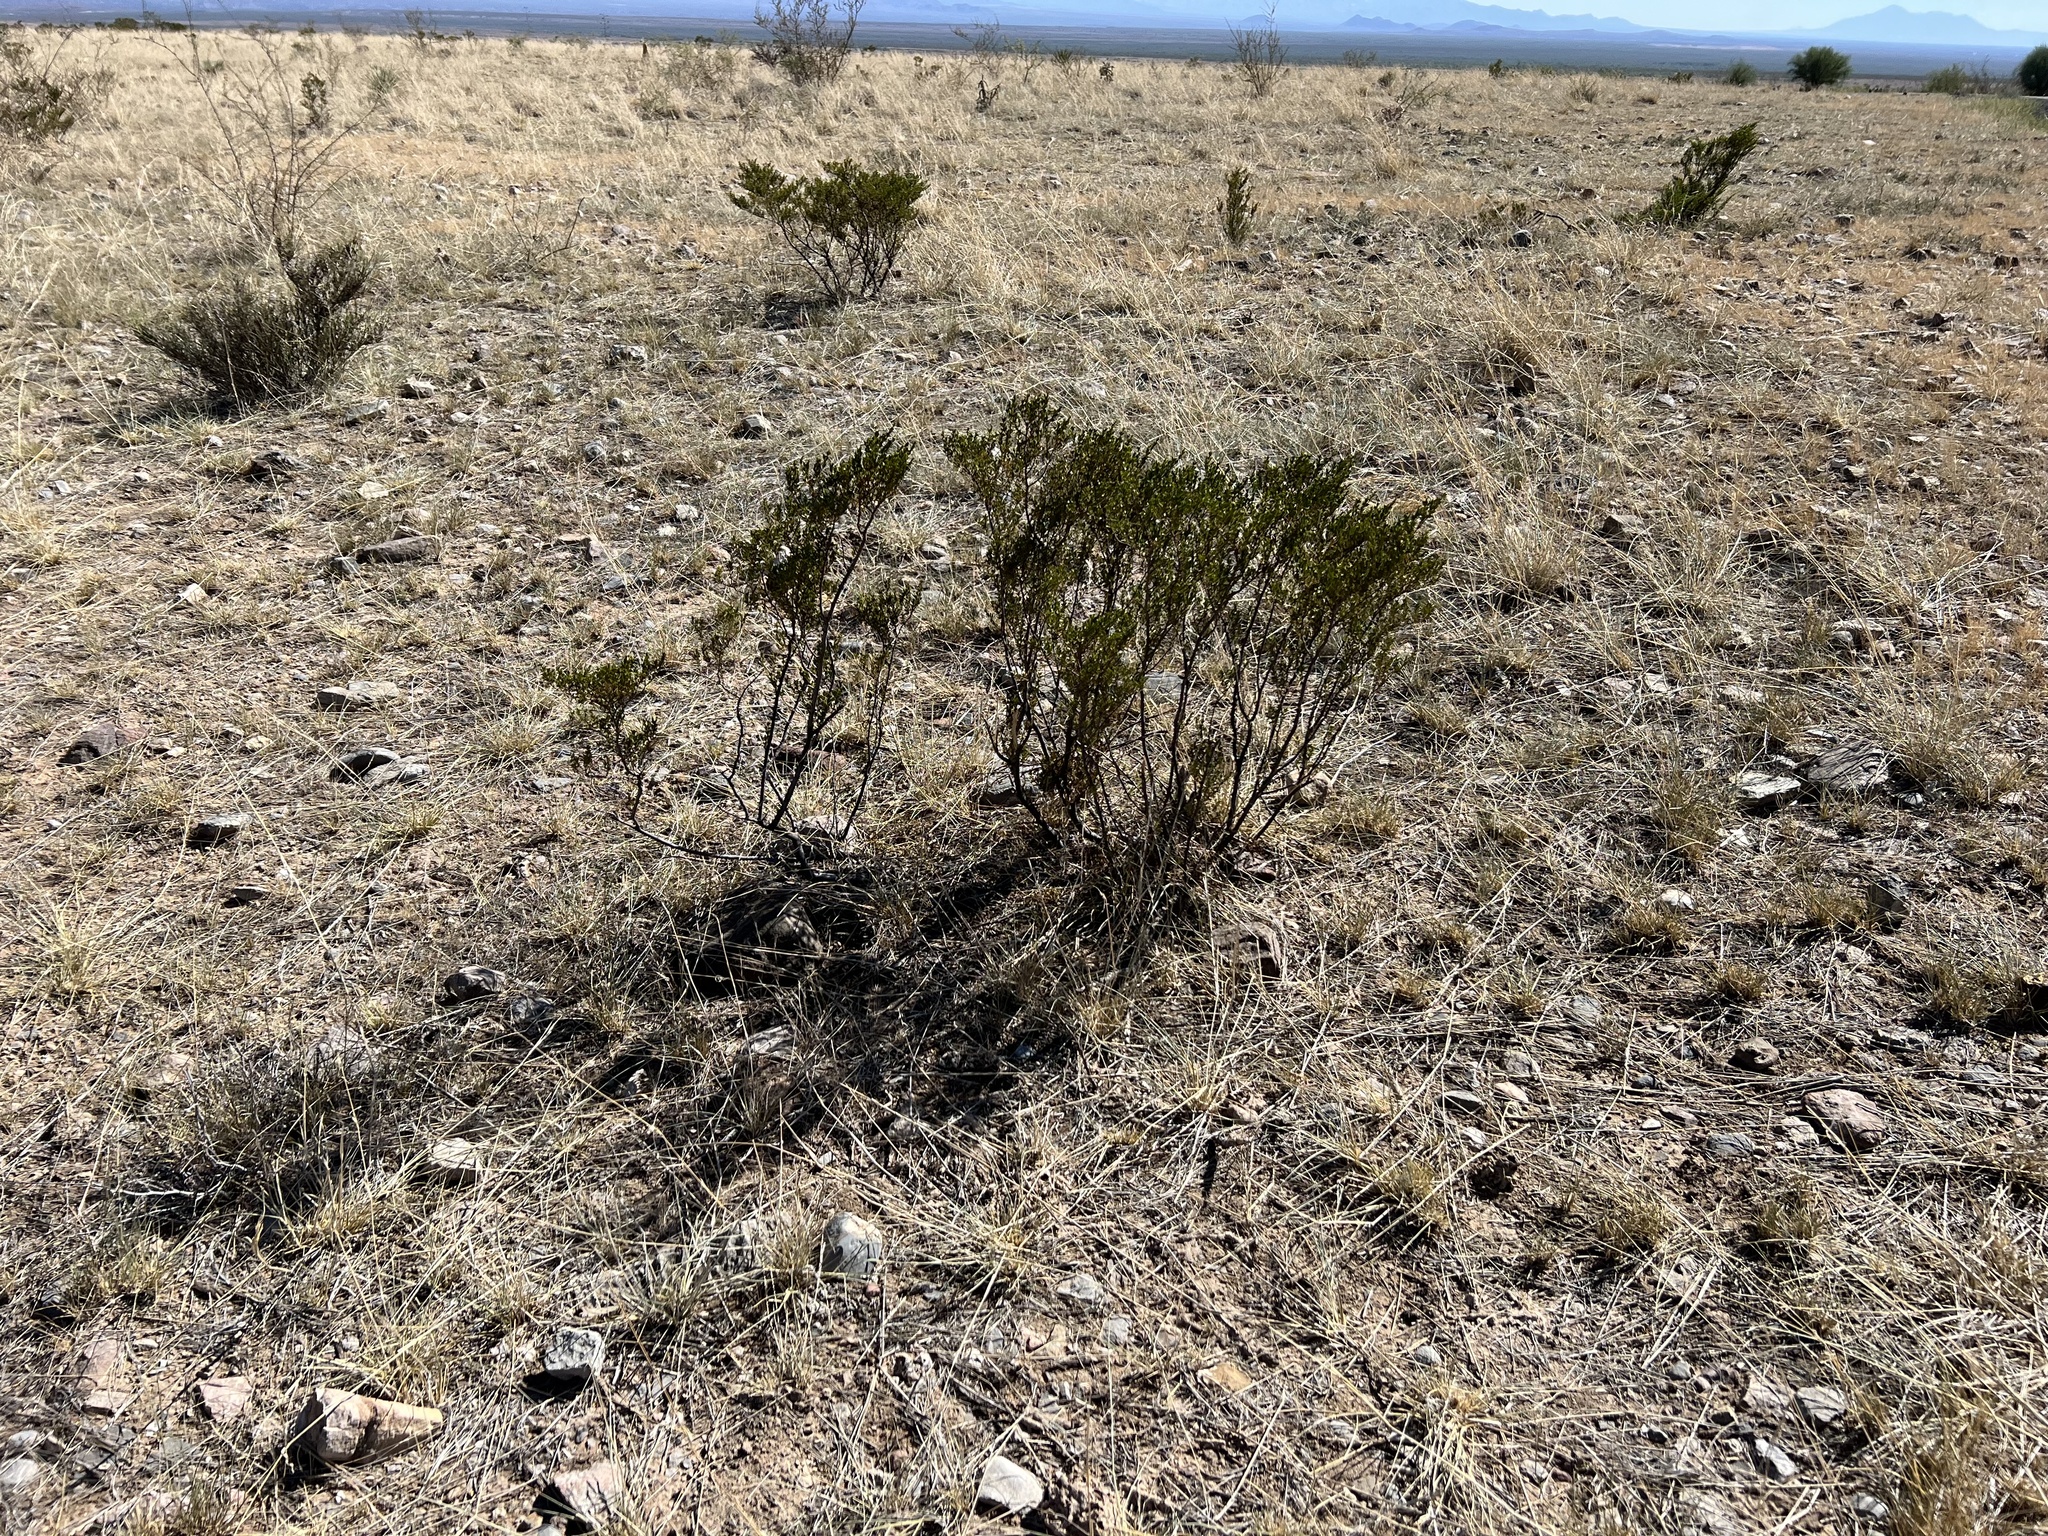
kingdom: Plantae
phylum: Tracheophyta
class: Magnoliopsida
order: Zygophyllales
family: Zygophyllaceae
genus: Larrea
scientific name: Larrea tridentata
